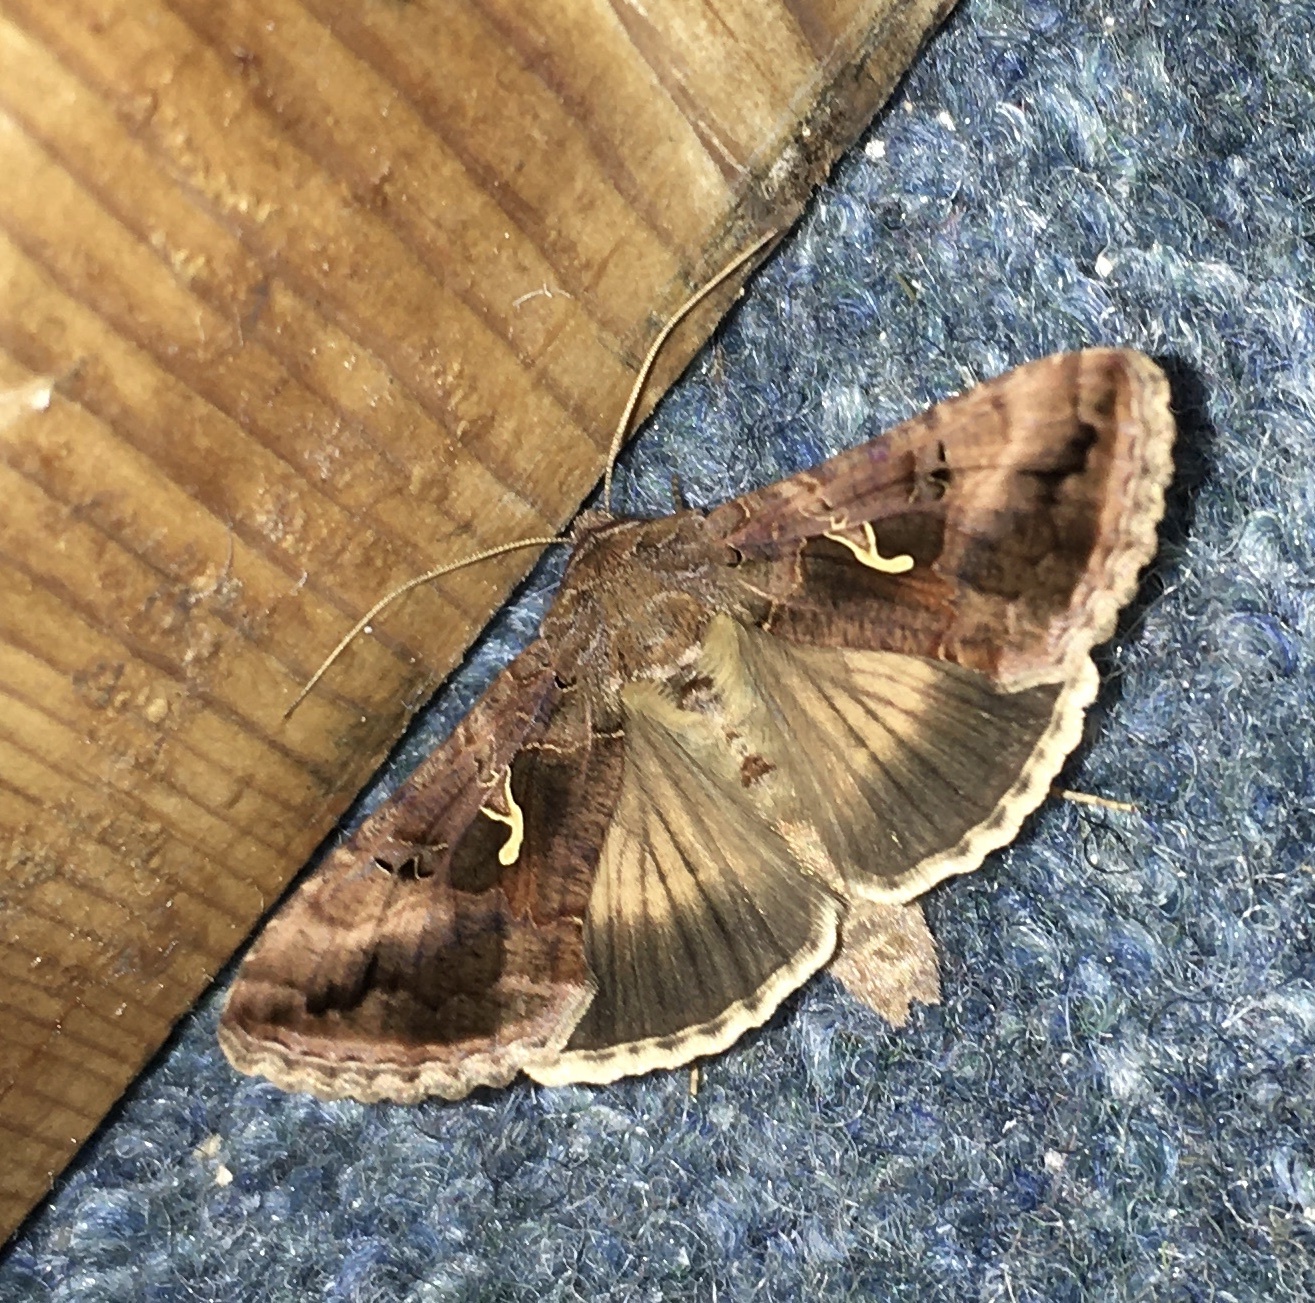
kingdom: Animalia
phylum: Arthropoda
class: Insecta
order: Lepidoptera
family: Noctuidae
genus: Autographa
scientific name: Autographa gamma
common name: Silver y
